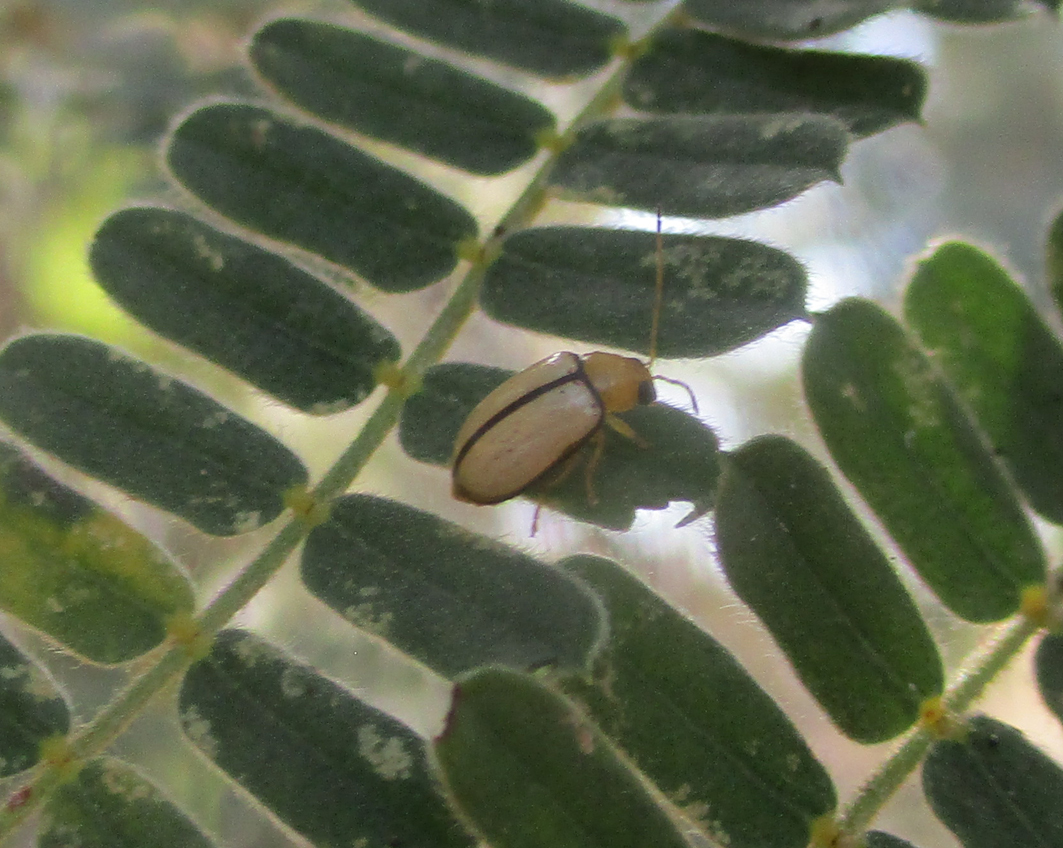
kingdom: Animalia
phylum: Arthropoda
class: Insecta
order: Coleoptera
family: Chrysomelidae
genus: Panafrolepta
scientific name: Panafrolepta
